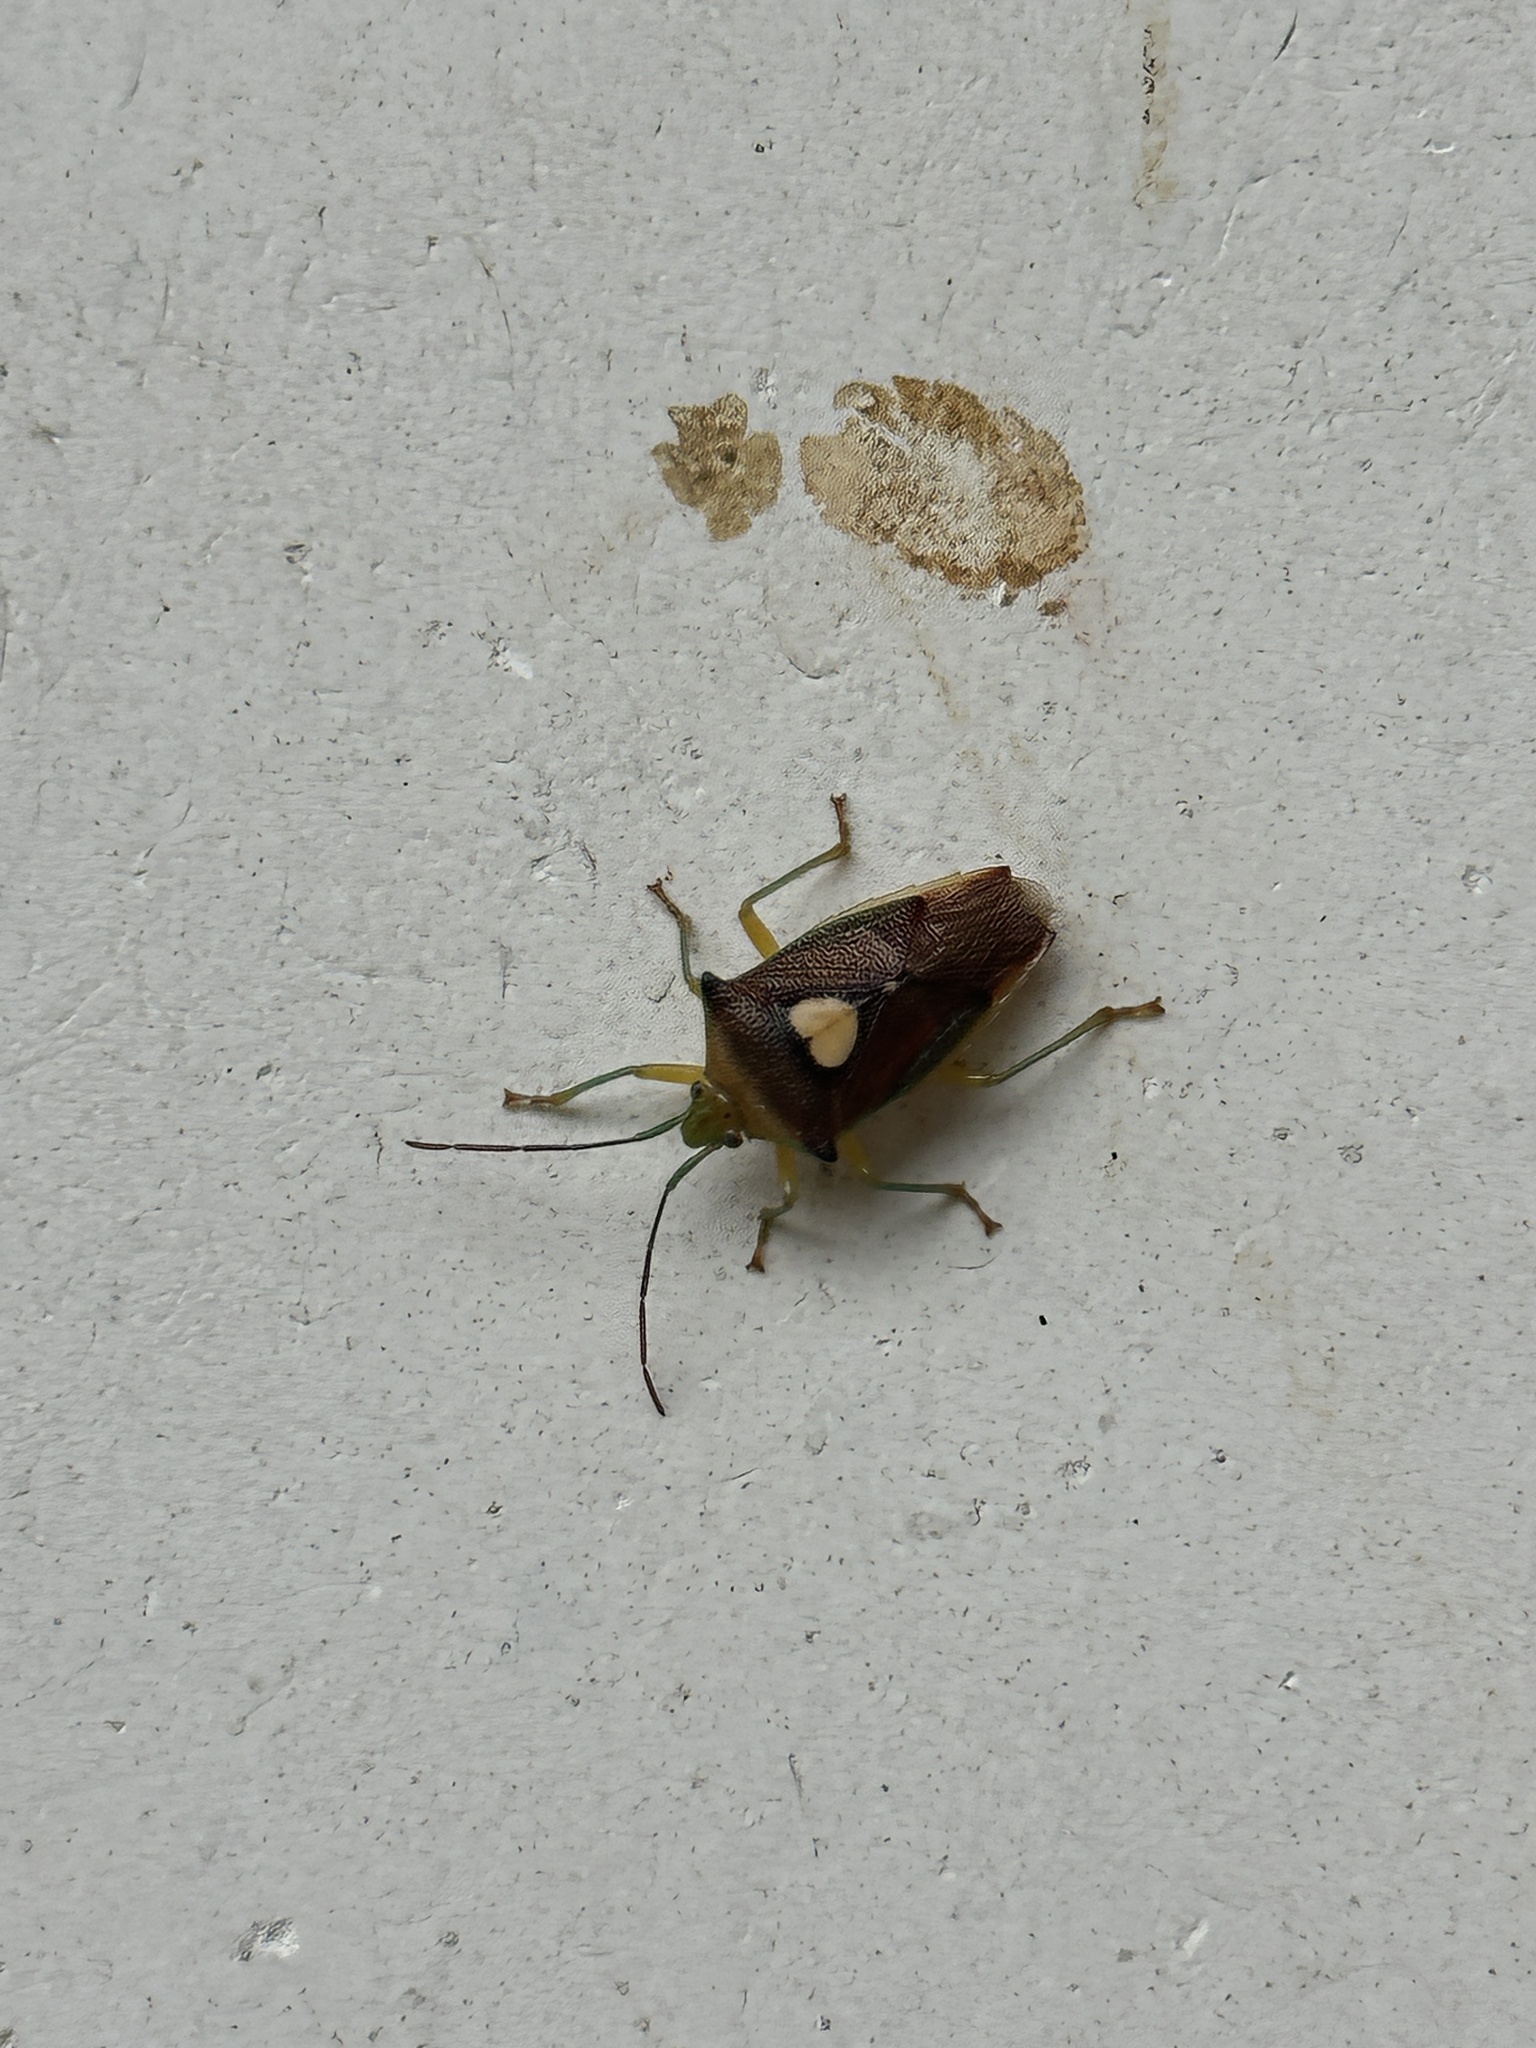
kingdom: Animalia
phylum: Arthropoda
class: Insecta
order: Hemiptera
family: Acanthosomatidae
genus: Sastragala
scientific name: Sastragala esakii
